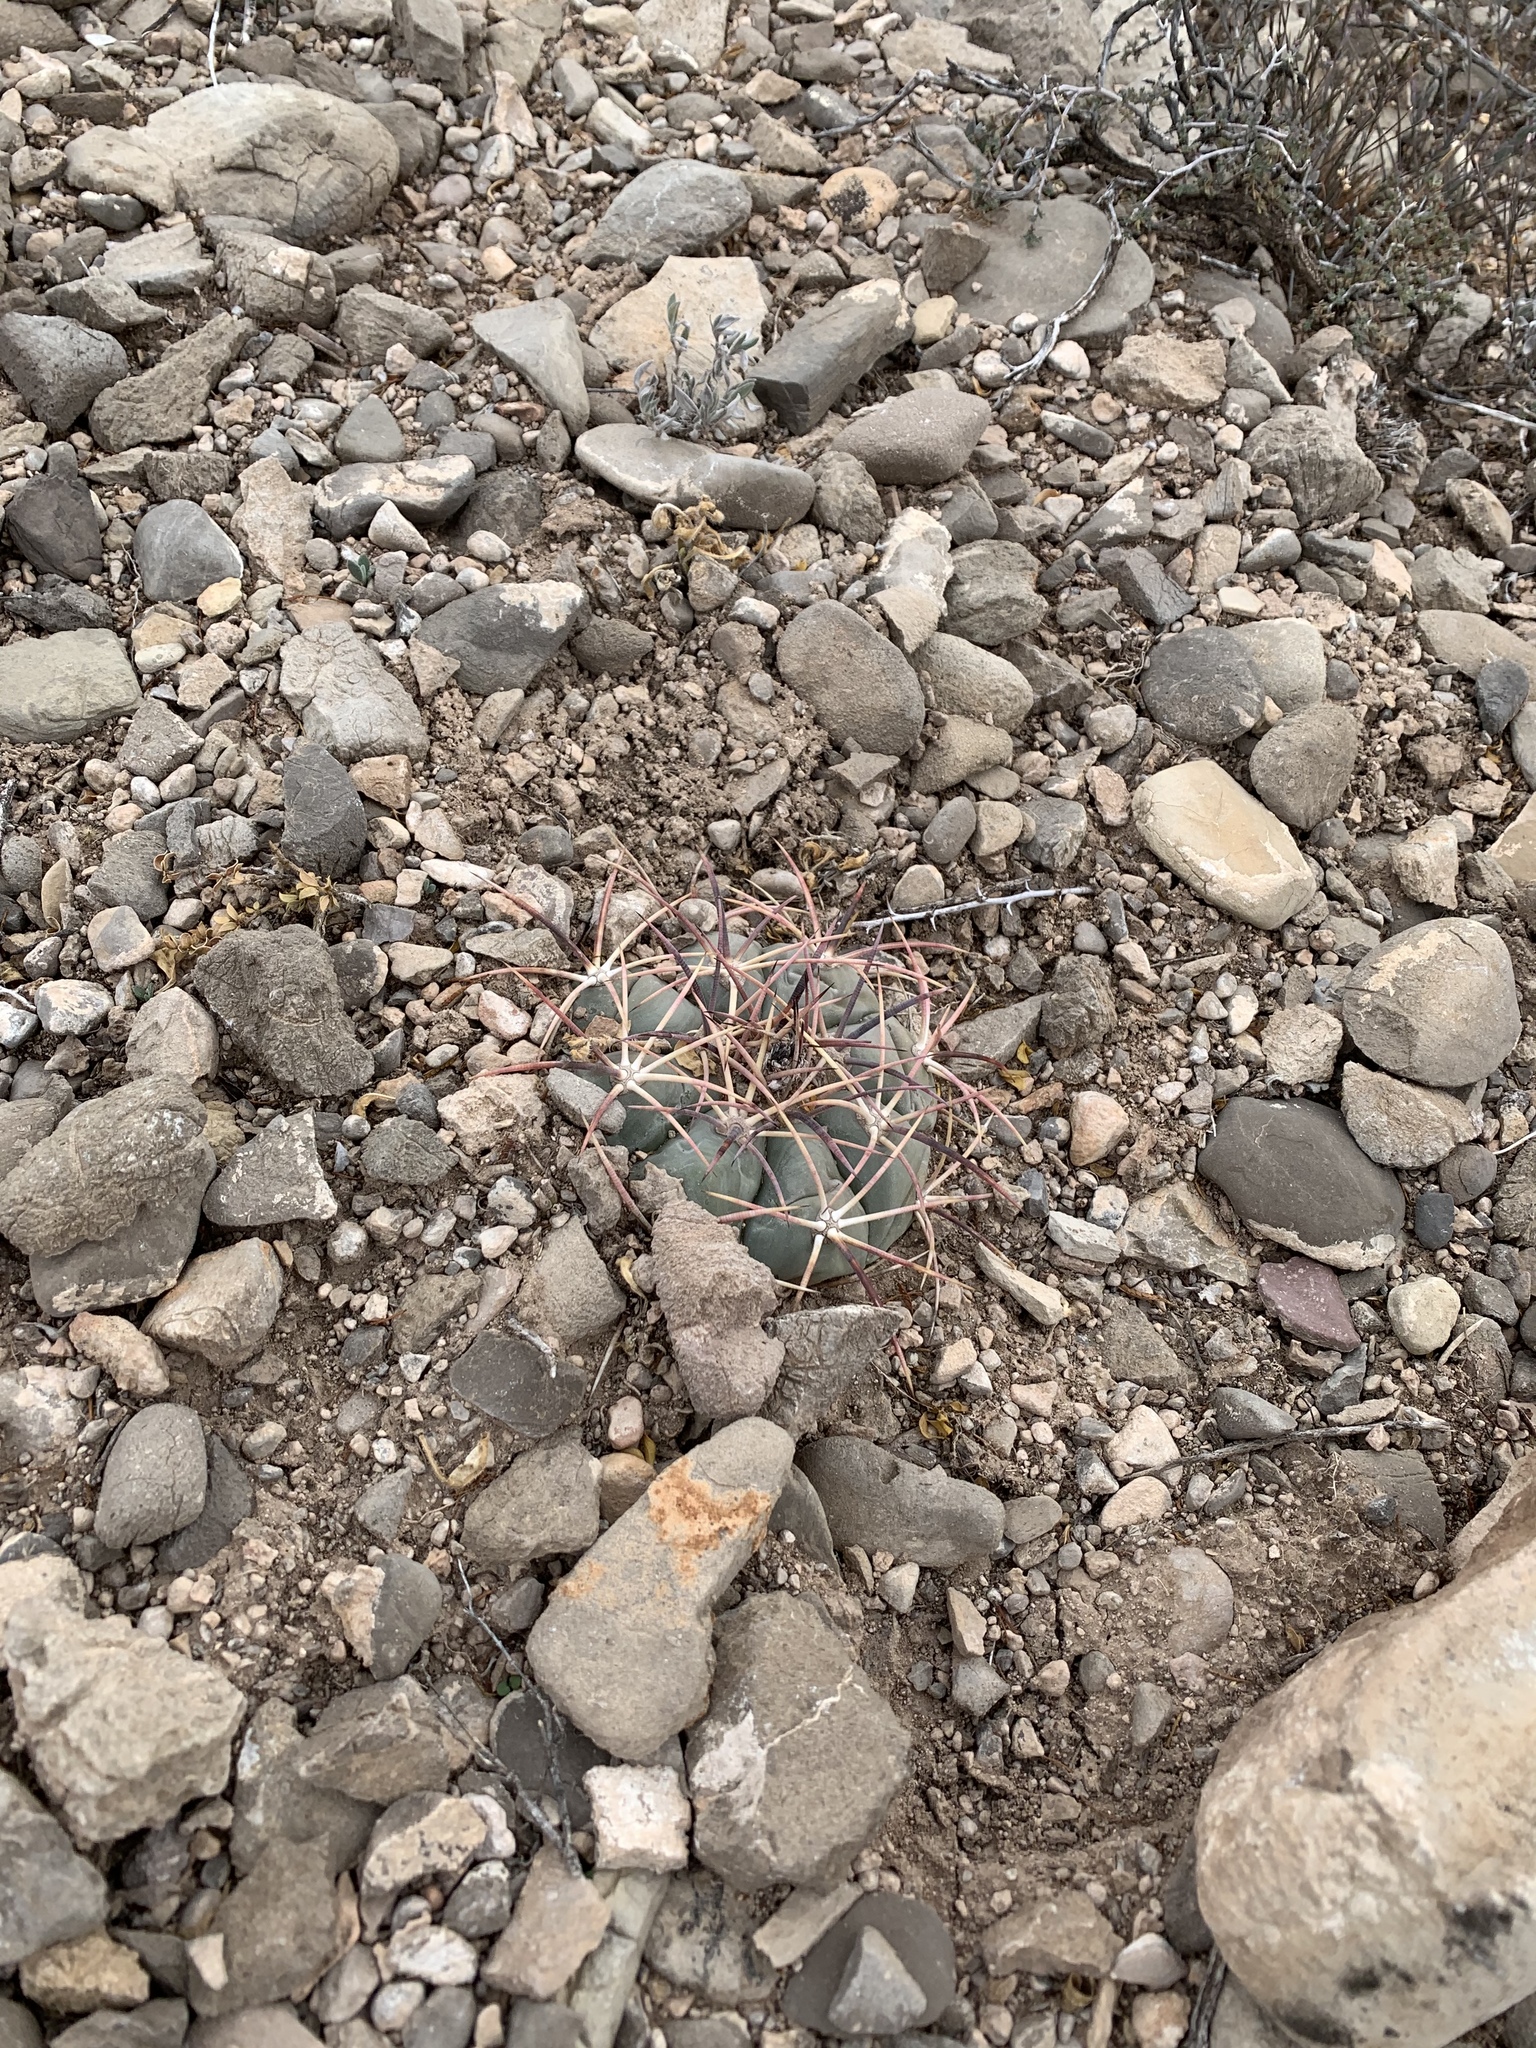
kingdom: Plantae
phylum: Tracheophyta
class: Magnoliopsida
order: Caryophyllales
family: Cactaceae
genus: Echinocactus
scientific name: Echinocactus horizonthalonius
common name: Devilshead
